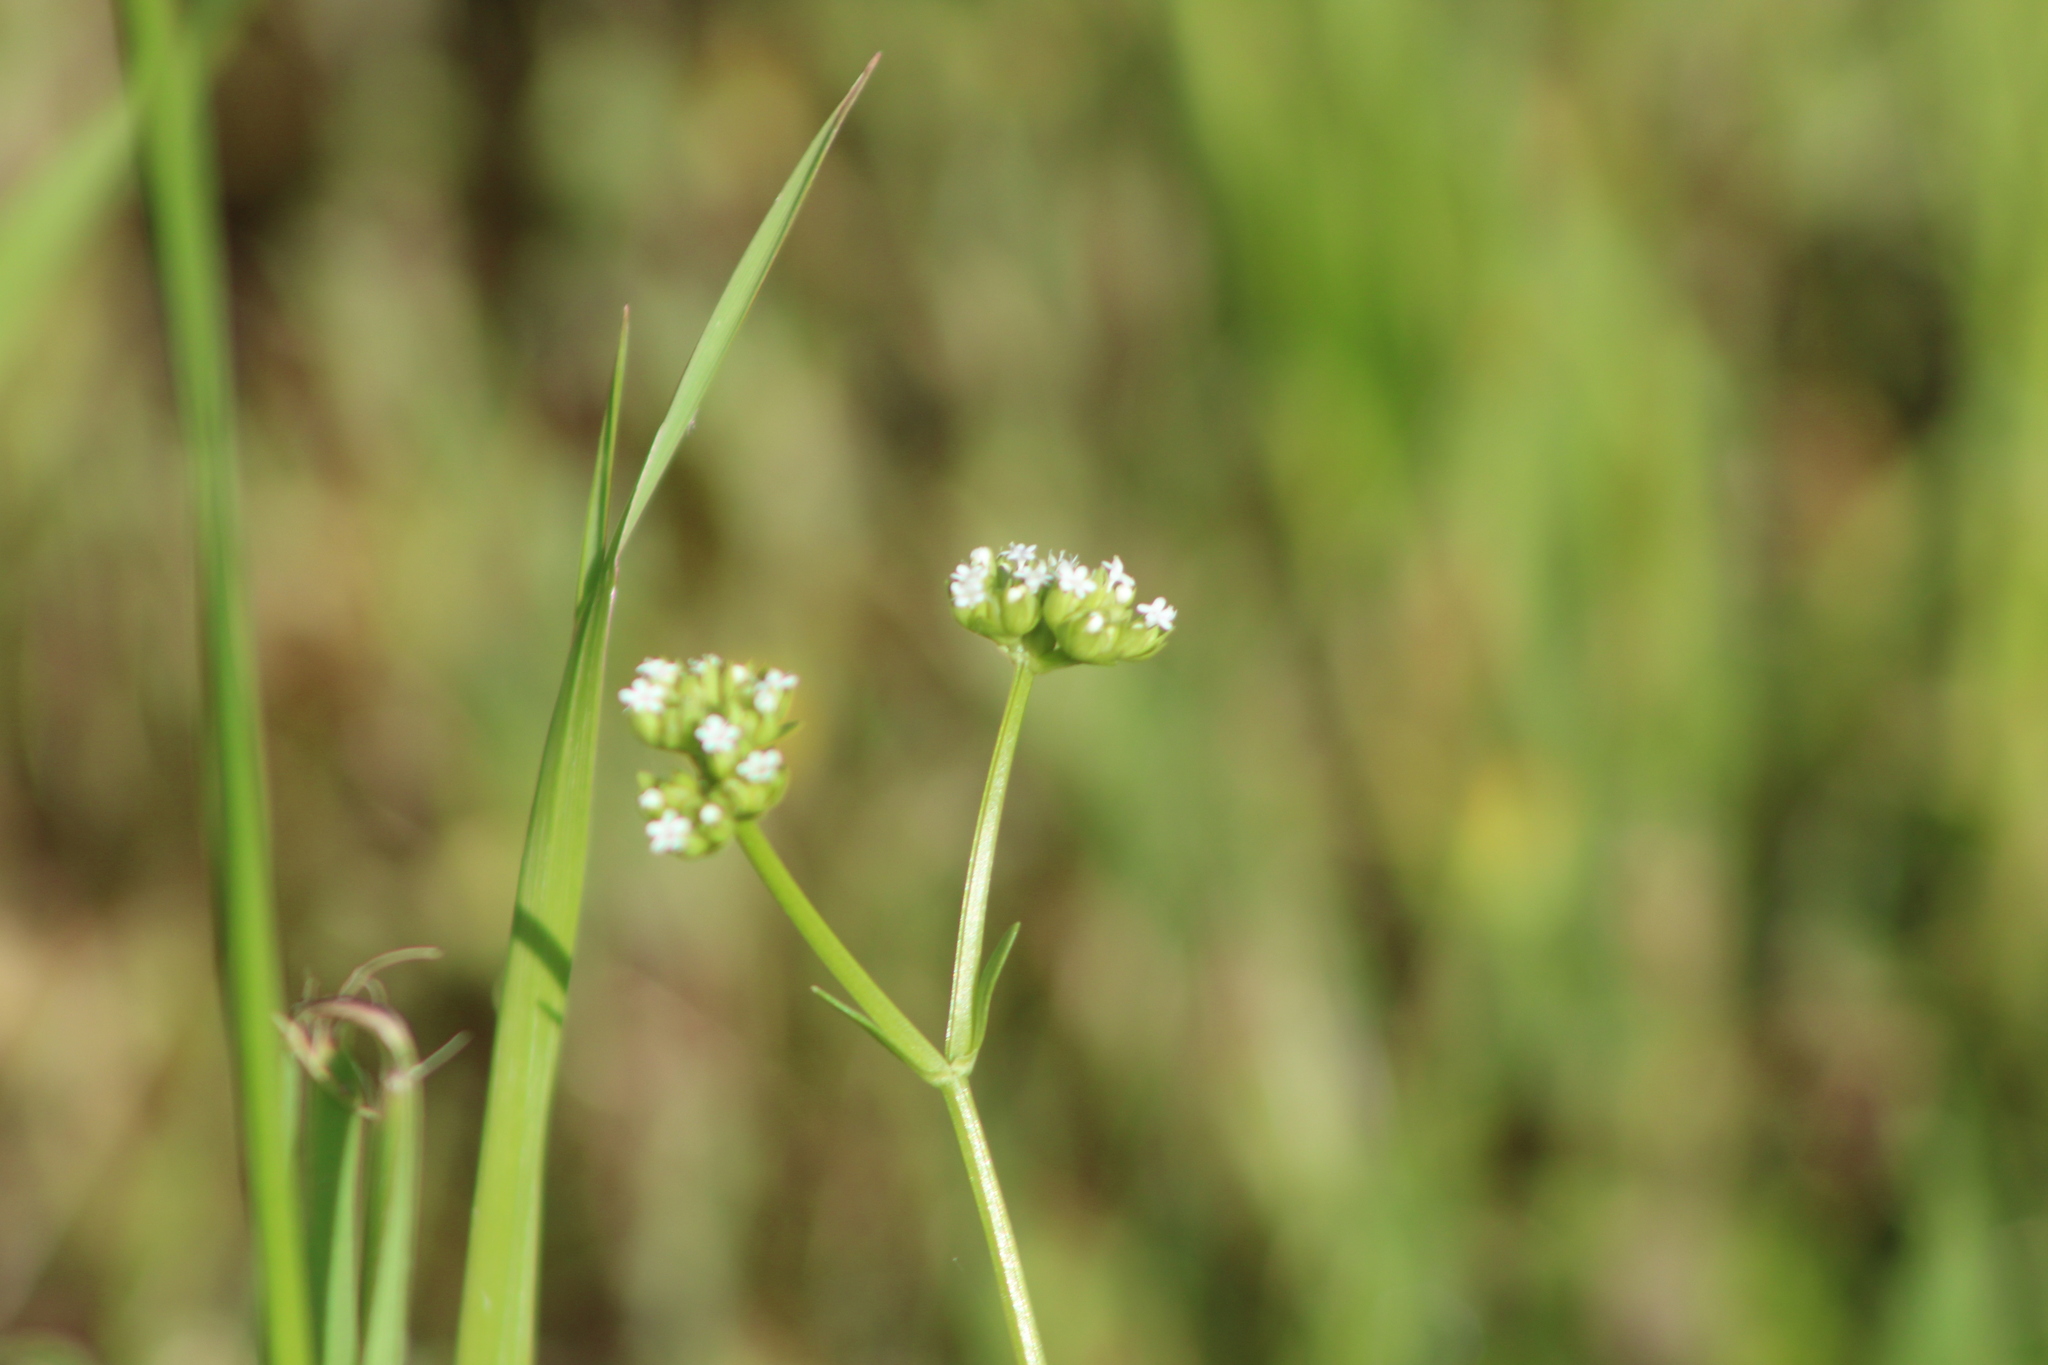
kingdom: Plantae
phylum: Tracheophyta
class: Magnoliopsida
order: Dipsacales
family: Caprifoliaceae
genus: Valerianella
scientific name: Valerianella radiata
